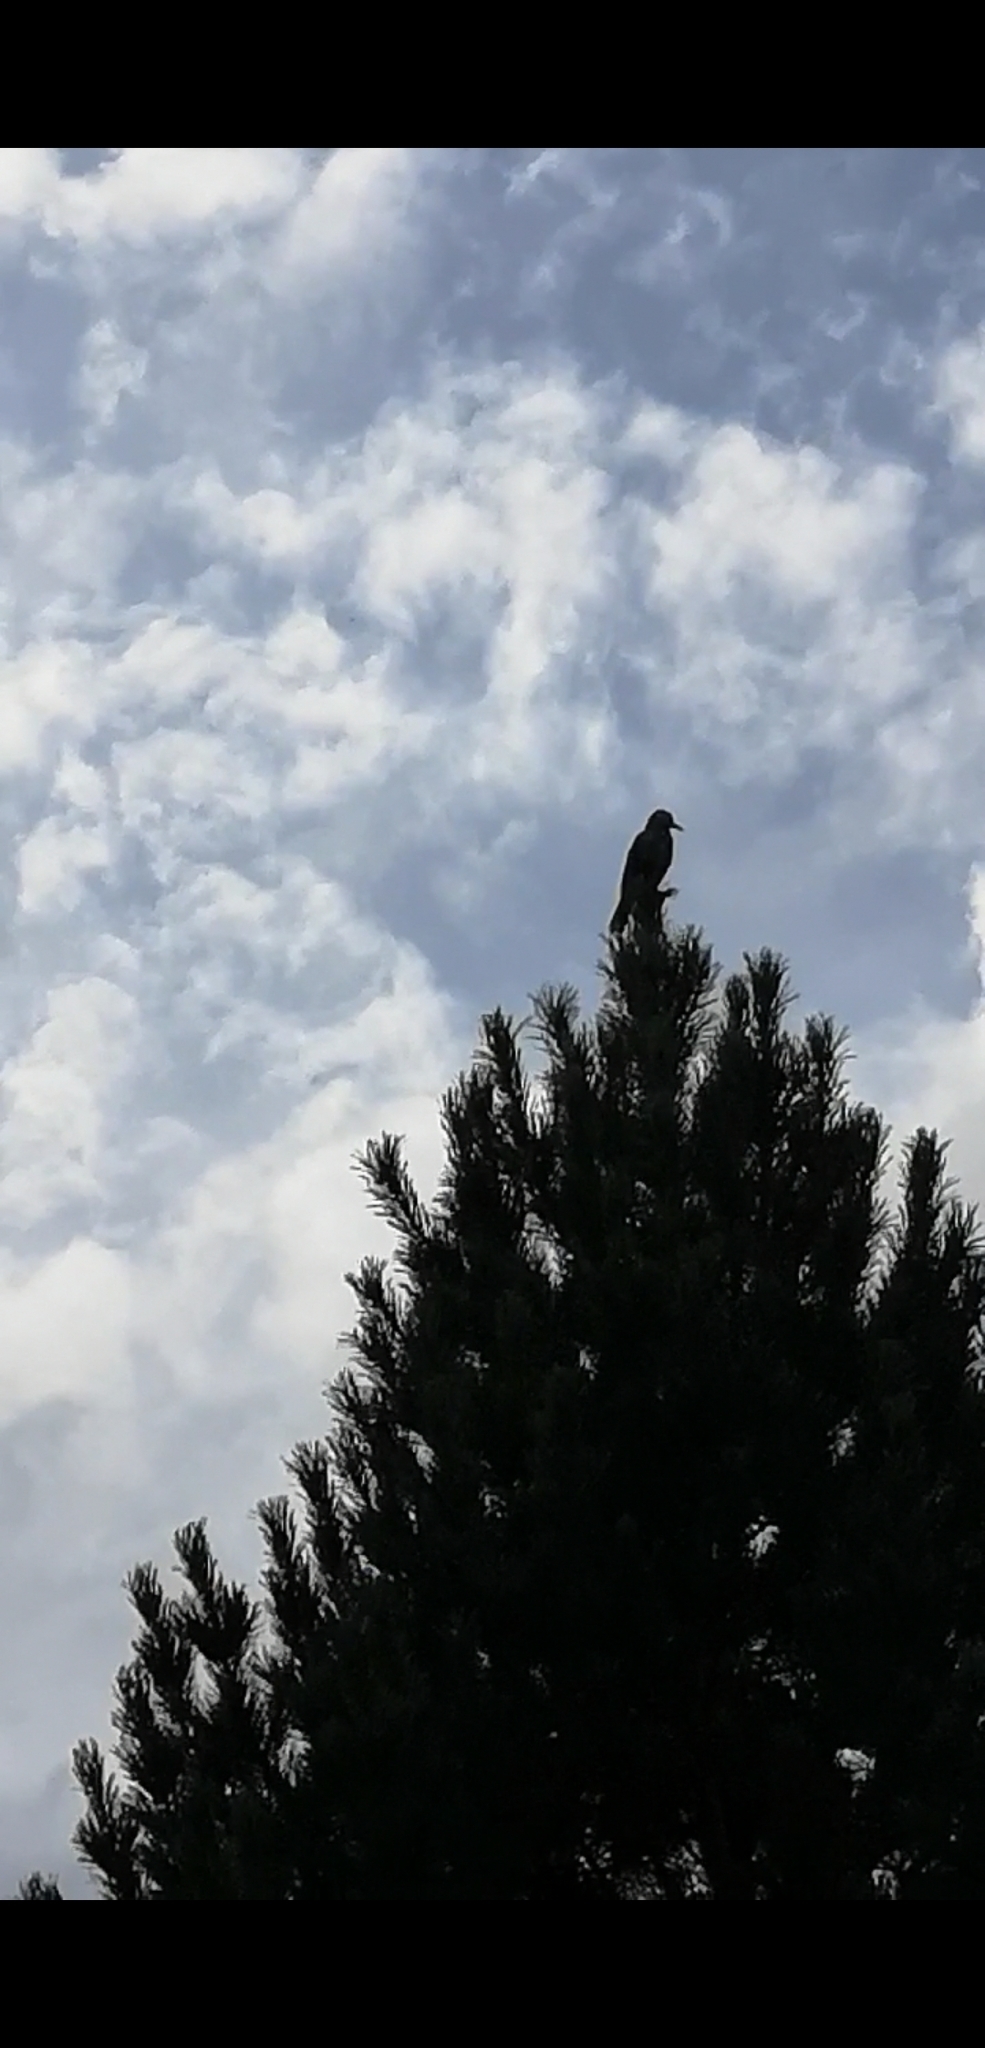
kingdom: Animalia
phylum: Chordata
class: Aves
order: Passeriformes
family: Corvidae
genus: Nucifraga
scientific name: Nucifraga caryocatactes
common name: Spotted nutcracker
